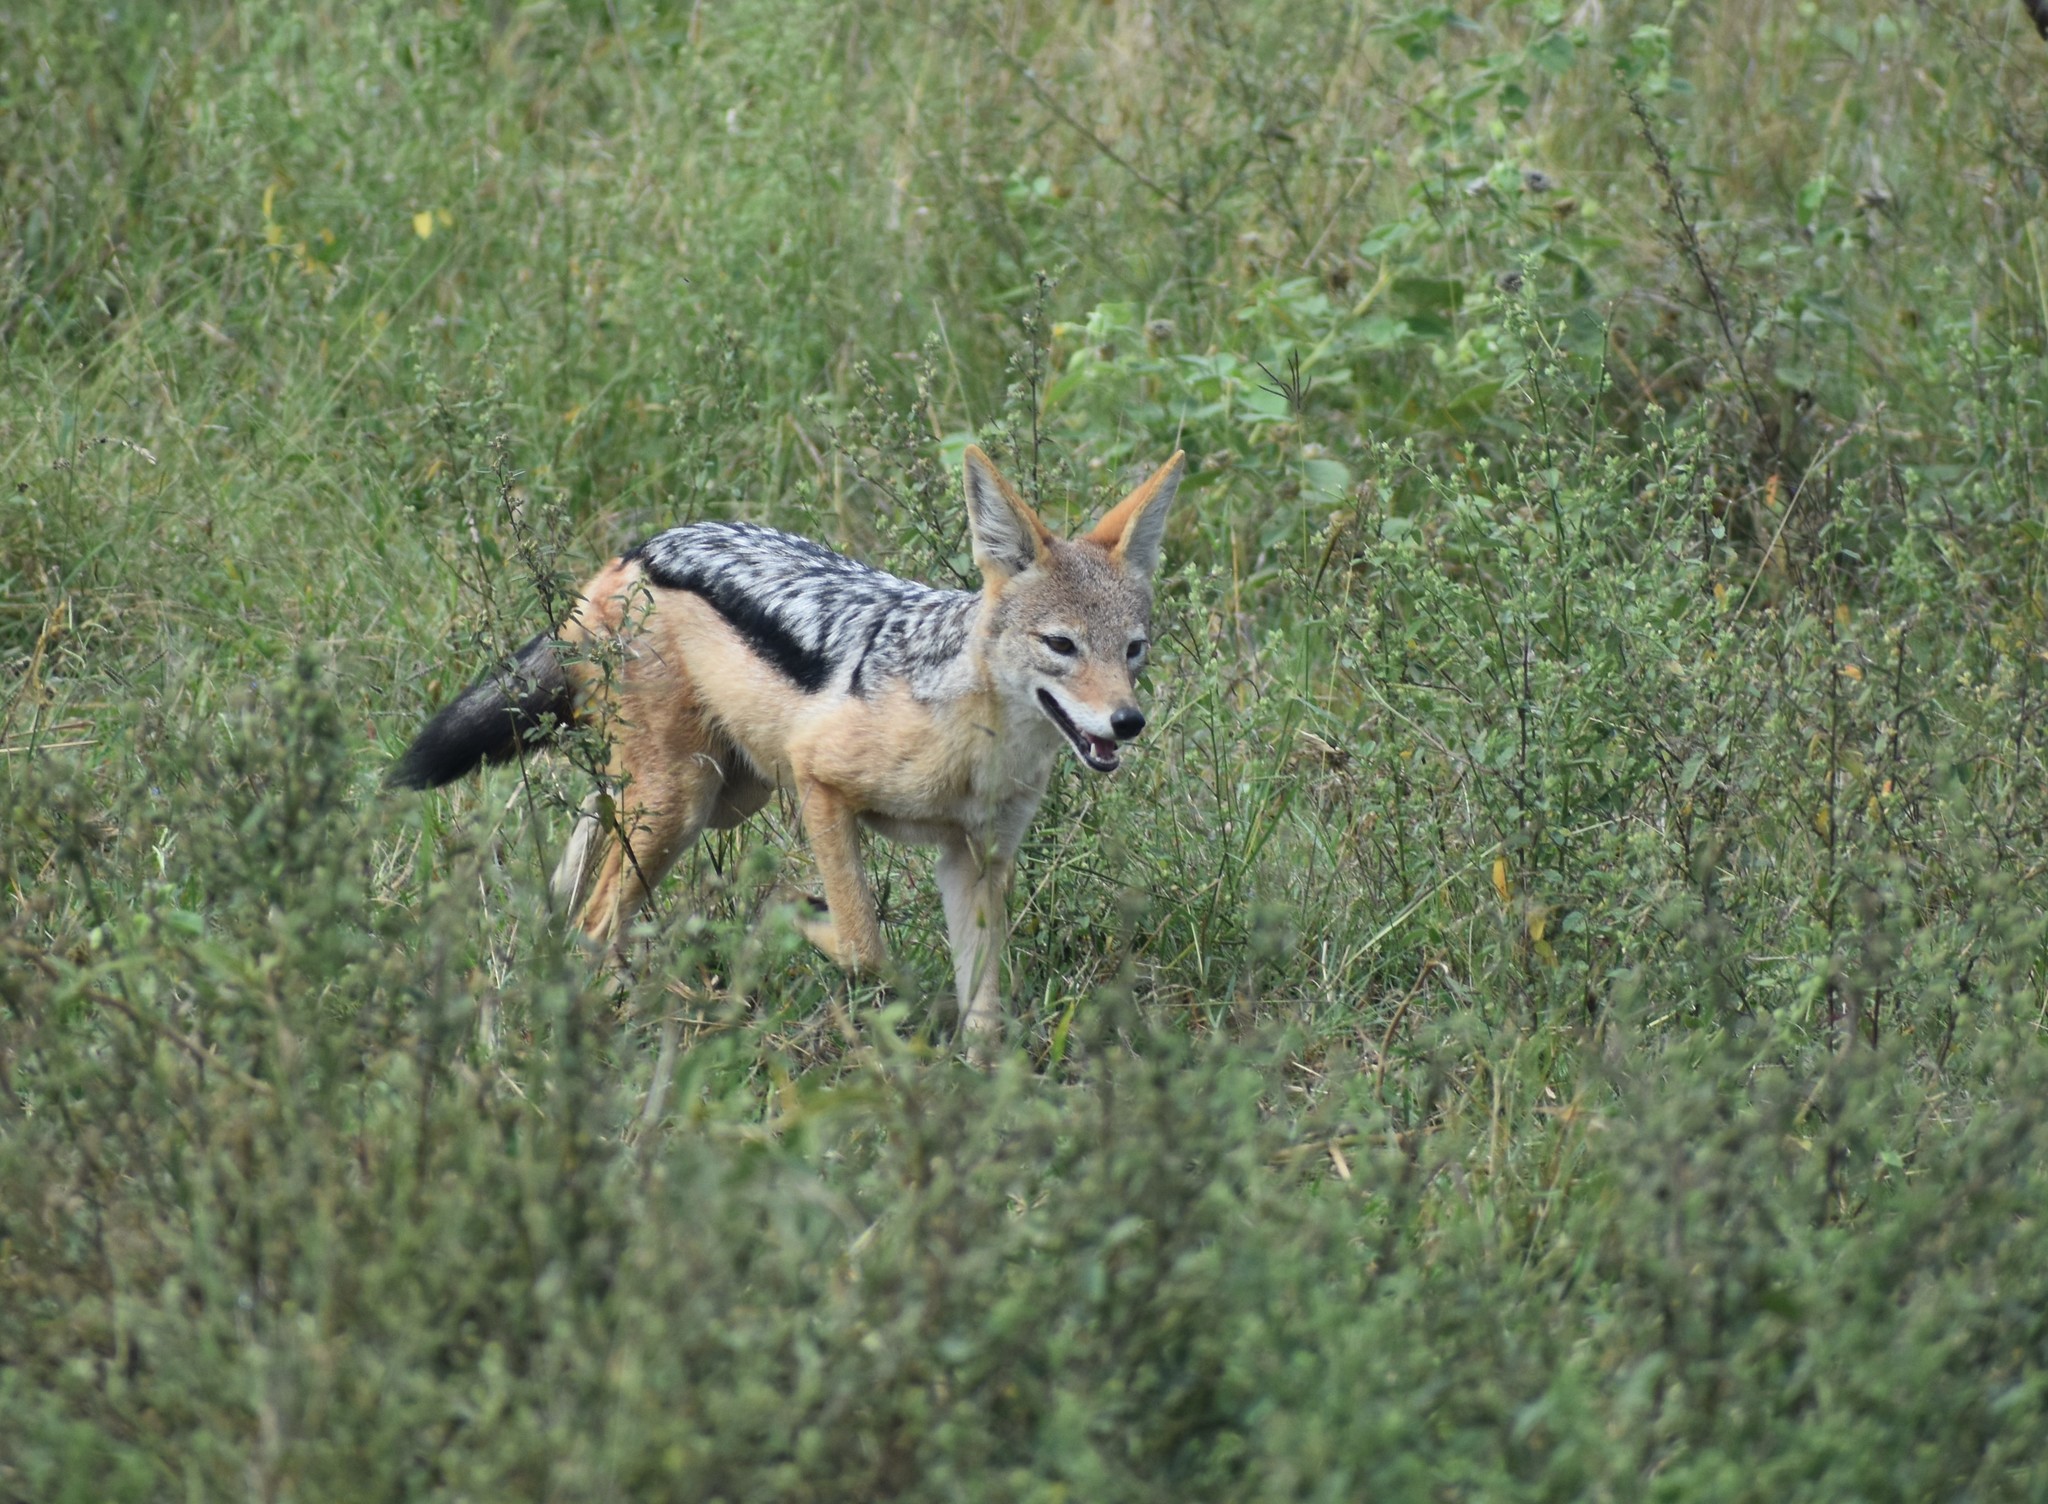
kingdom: Animalia
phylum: Chordata
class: Mammalia
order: Carnivora
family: Canidae
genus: Lupulella
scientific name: Lupulella
